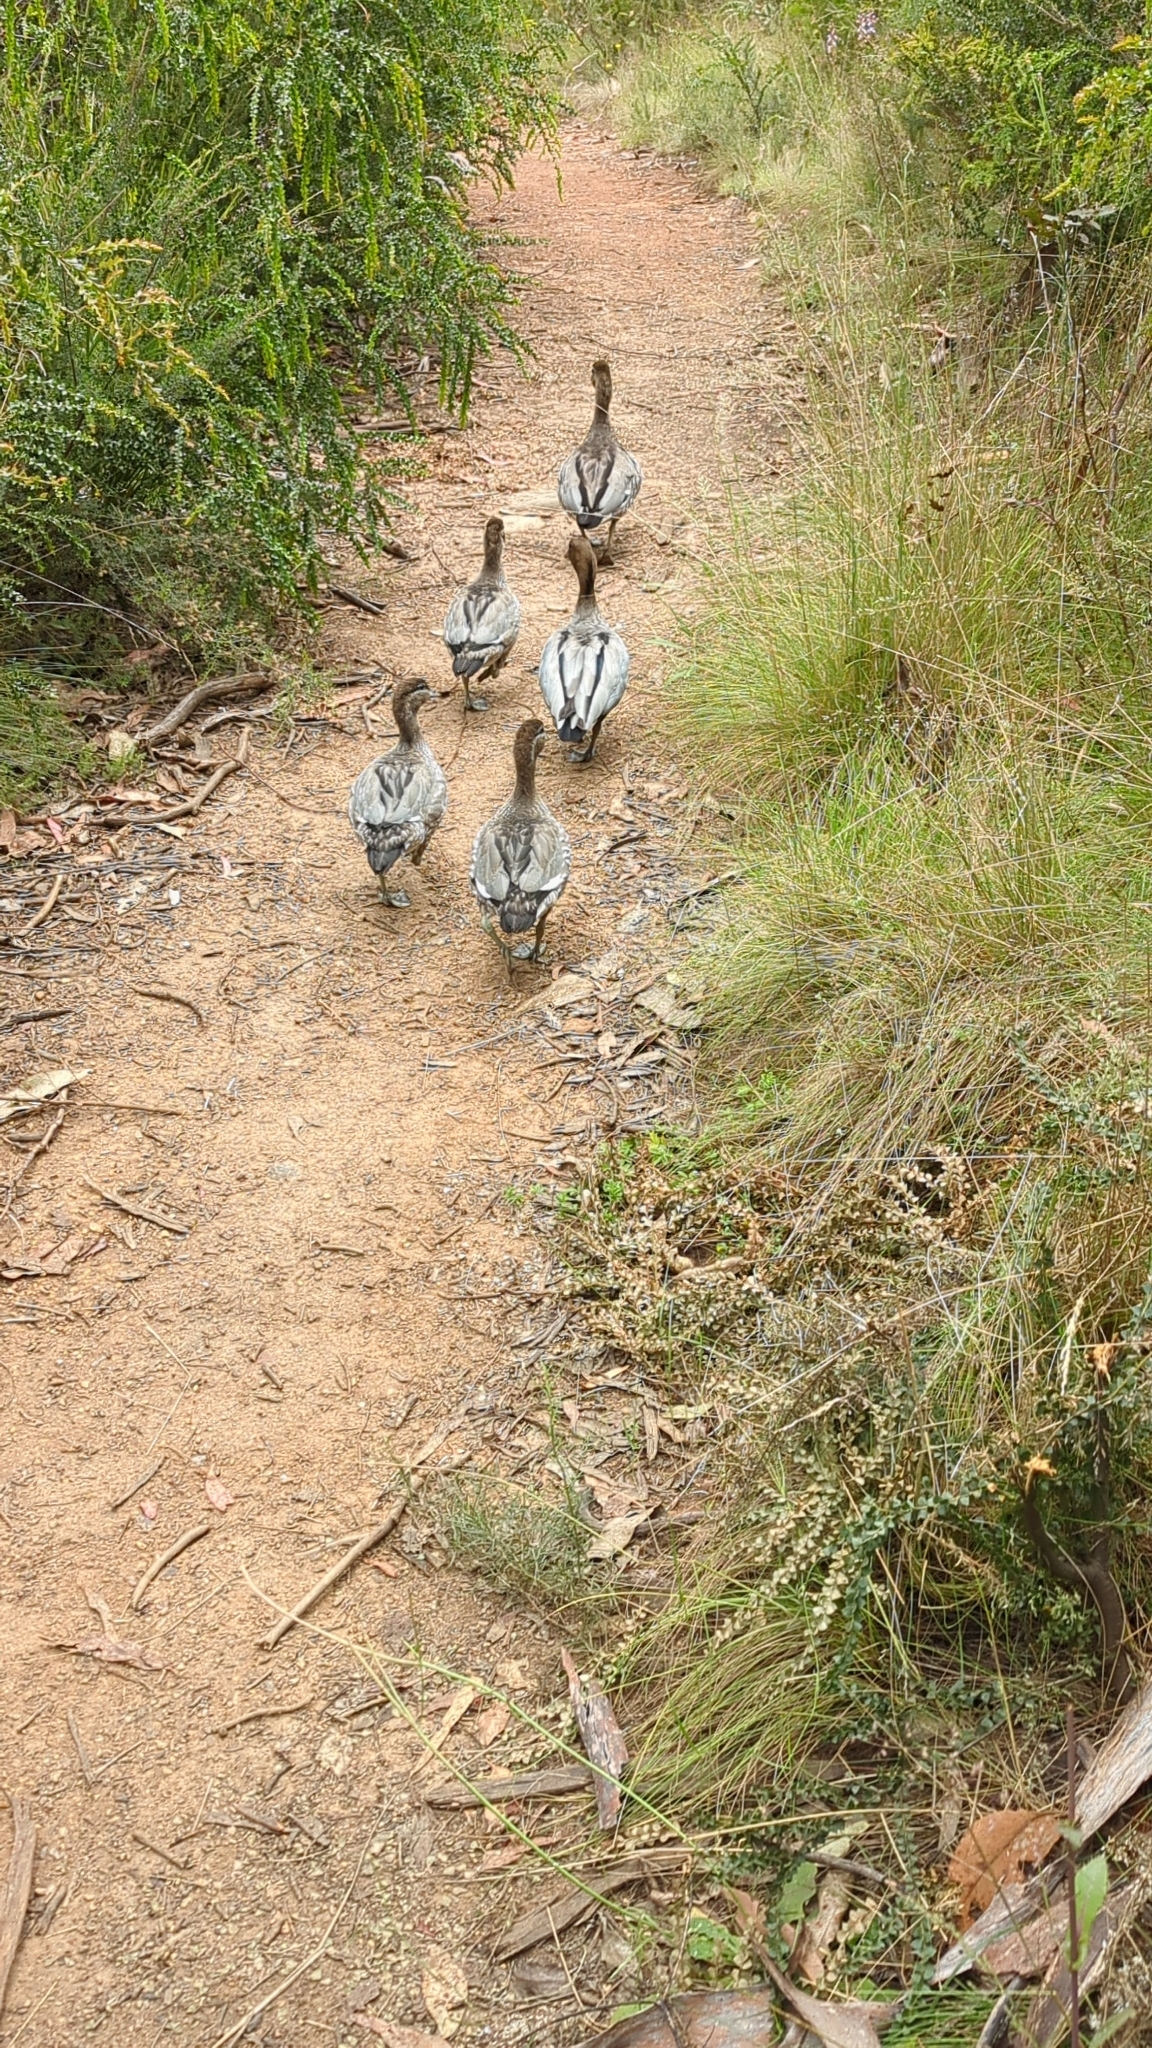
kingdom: Animalia
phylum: Chordata
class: Aves
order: Anseriformes
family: Anatidae
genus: Chenonetta
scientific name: Chenonetta jubata
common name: Maned duck
